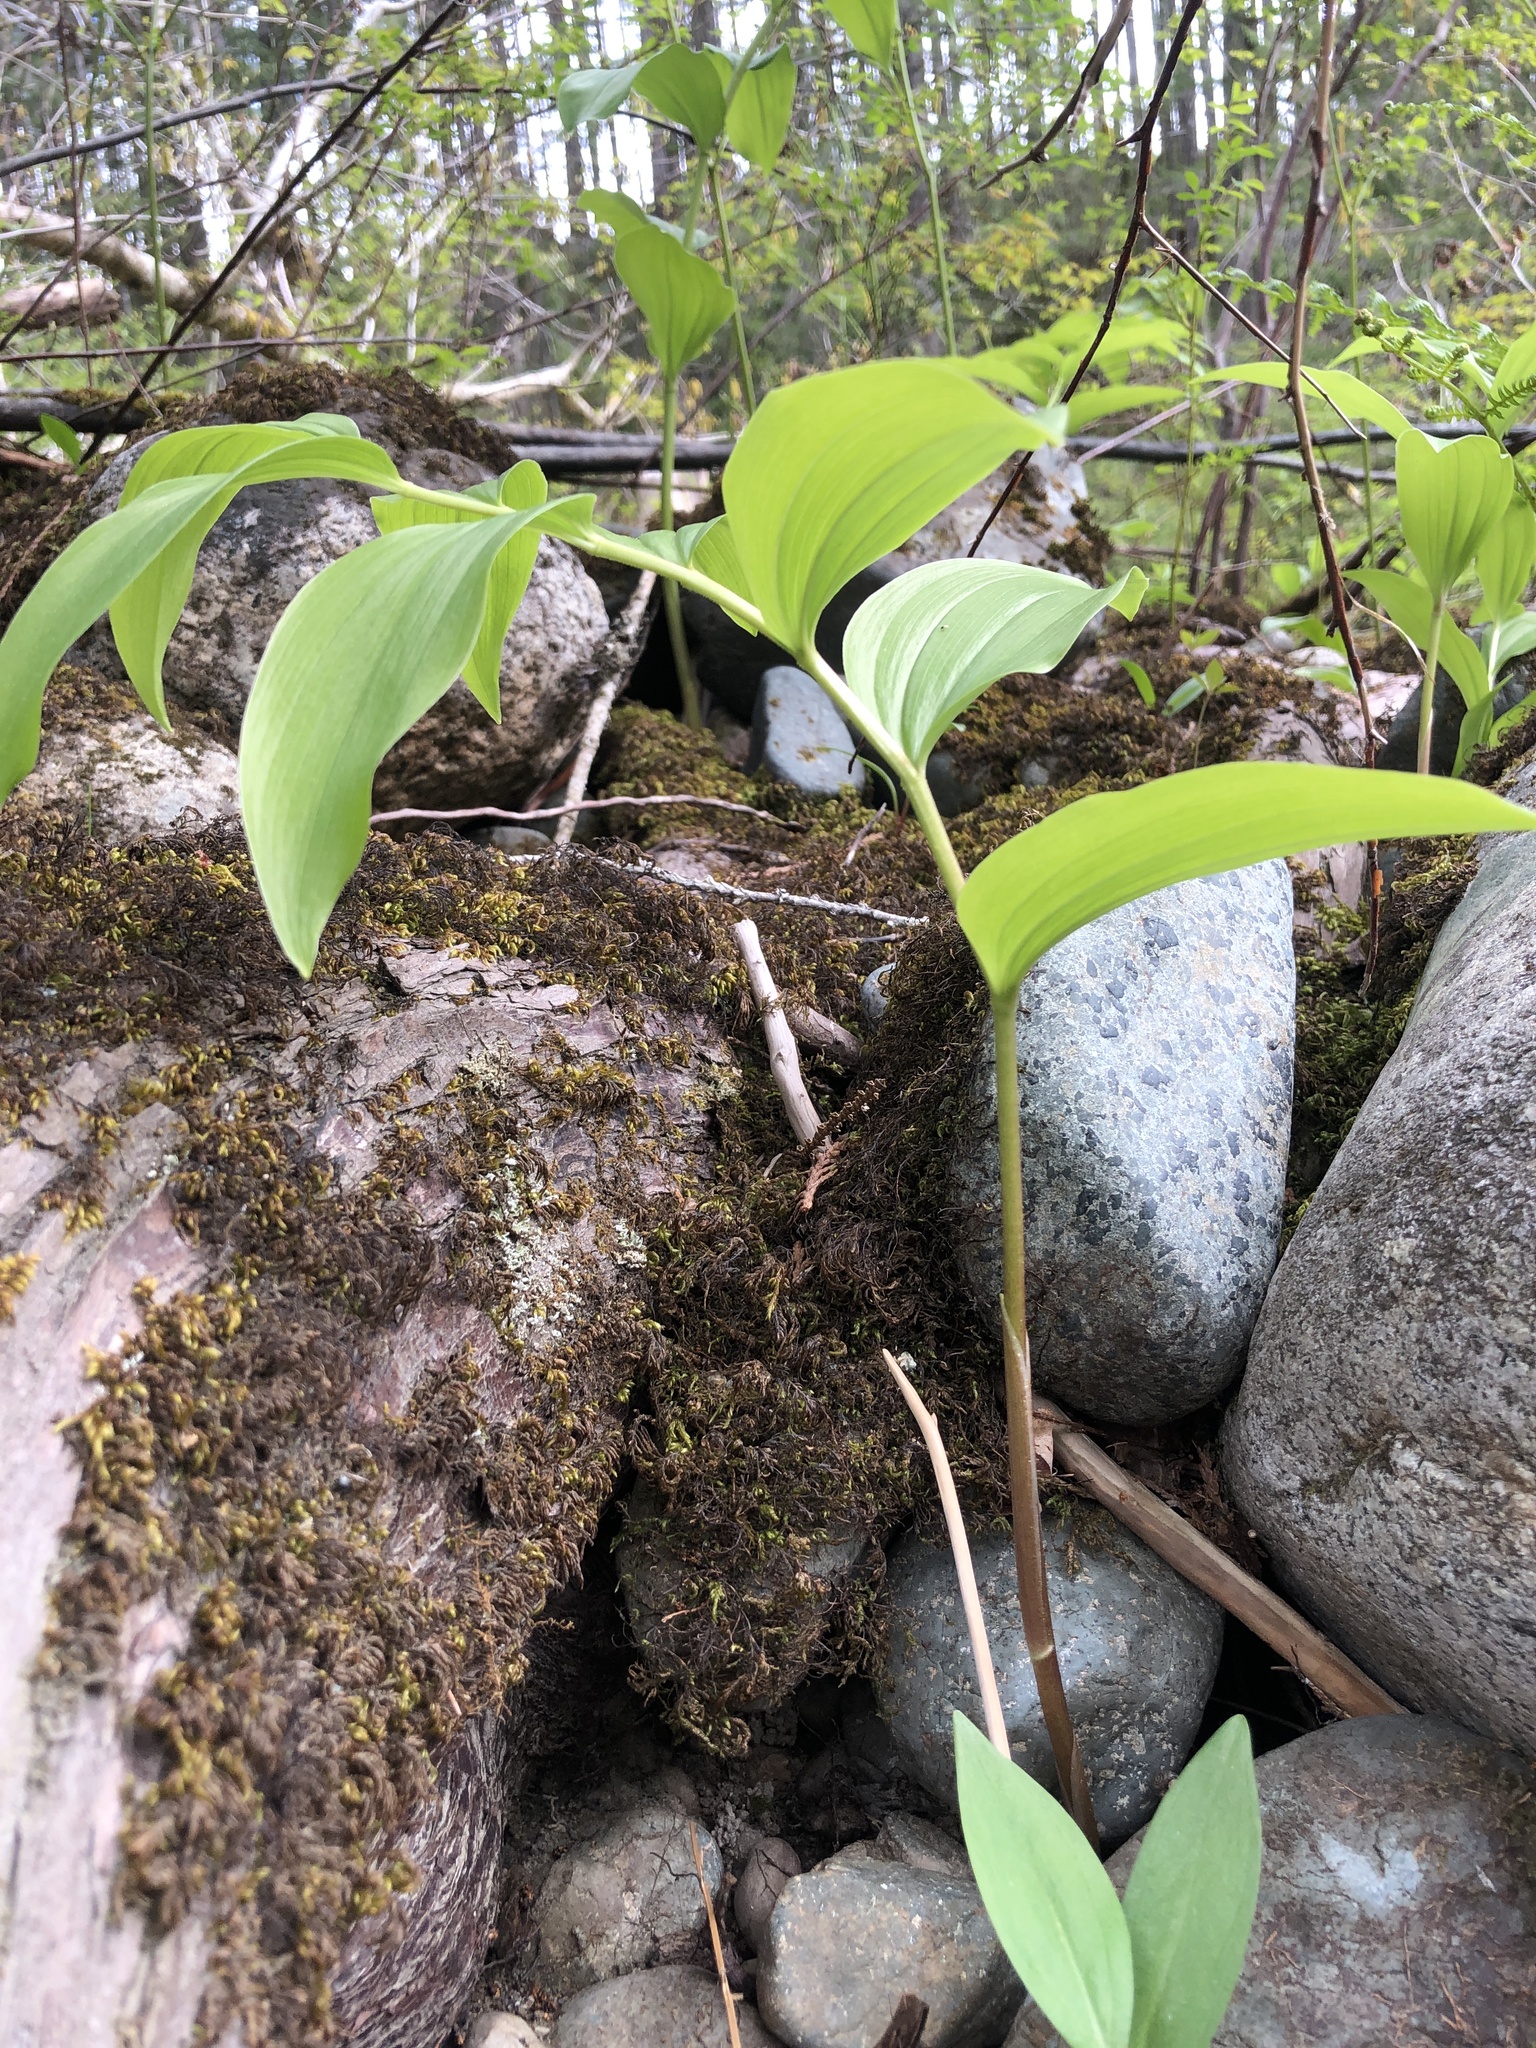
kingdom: Plantae
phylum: Tracheophyta
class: Liliopsida
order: Asparagales
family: Asparagaceae
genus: Maianthemum
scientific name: Maianthemum racemosum
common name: False spikenard
